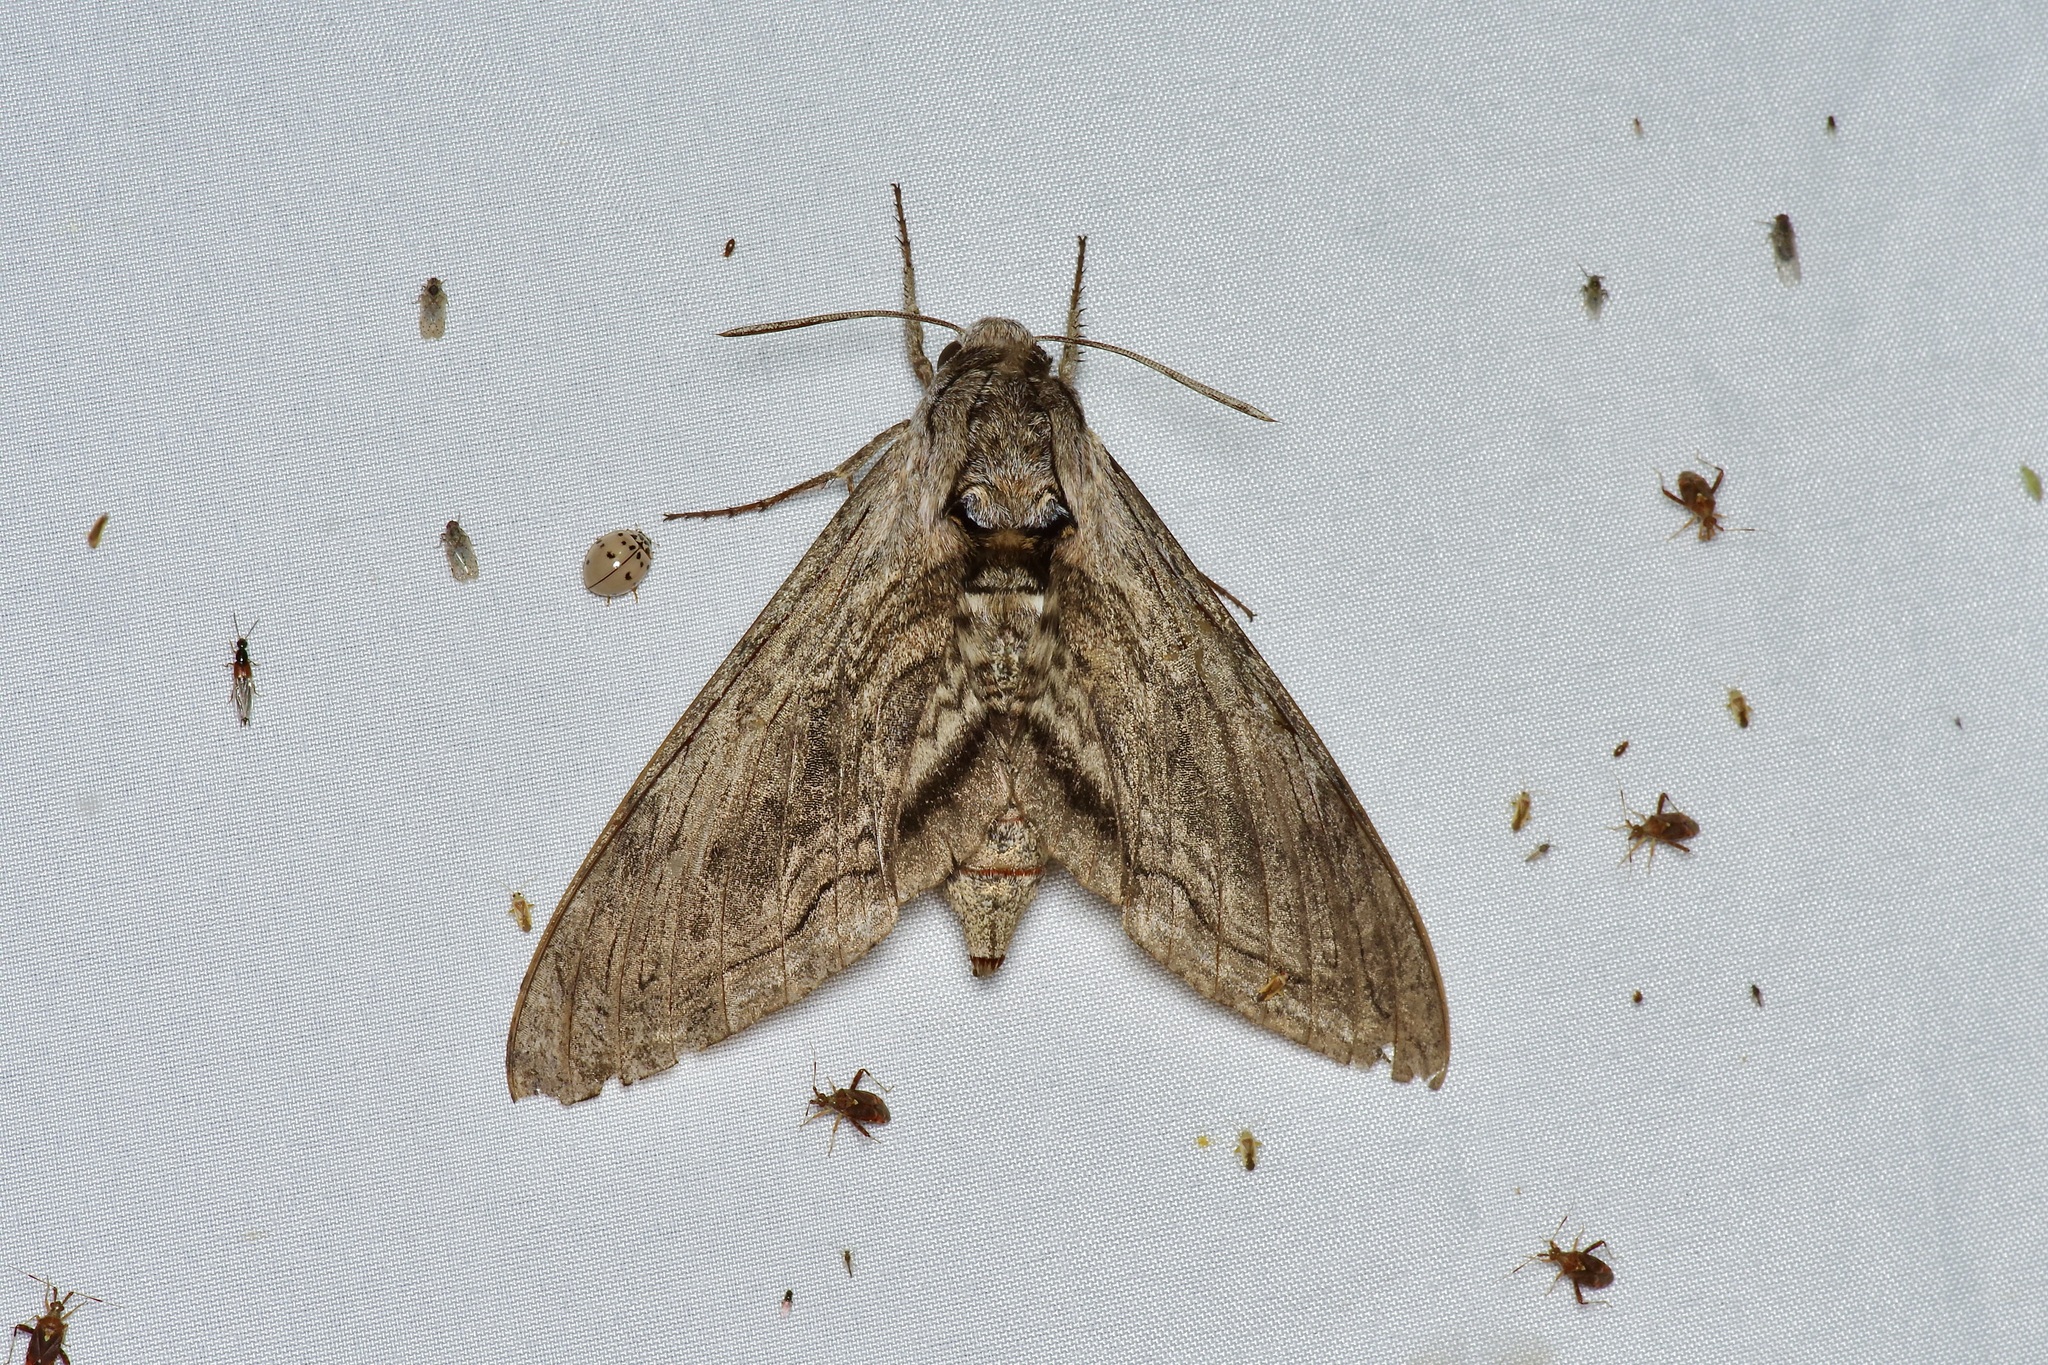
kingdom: Animalia
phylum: Arthropoda
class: Insecta
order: Lepidoptera
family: Sphingidae
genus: Manduca
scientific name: Manduca quinquemaculatus
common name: Five-spotted hawk-moth
